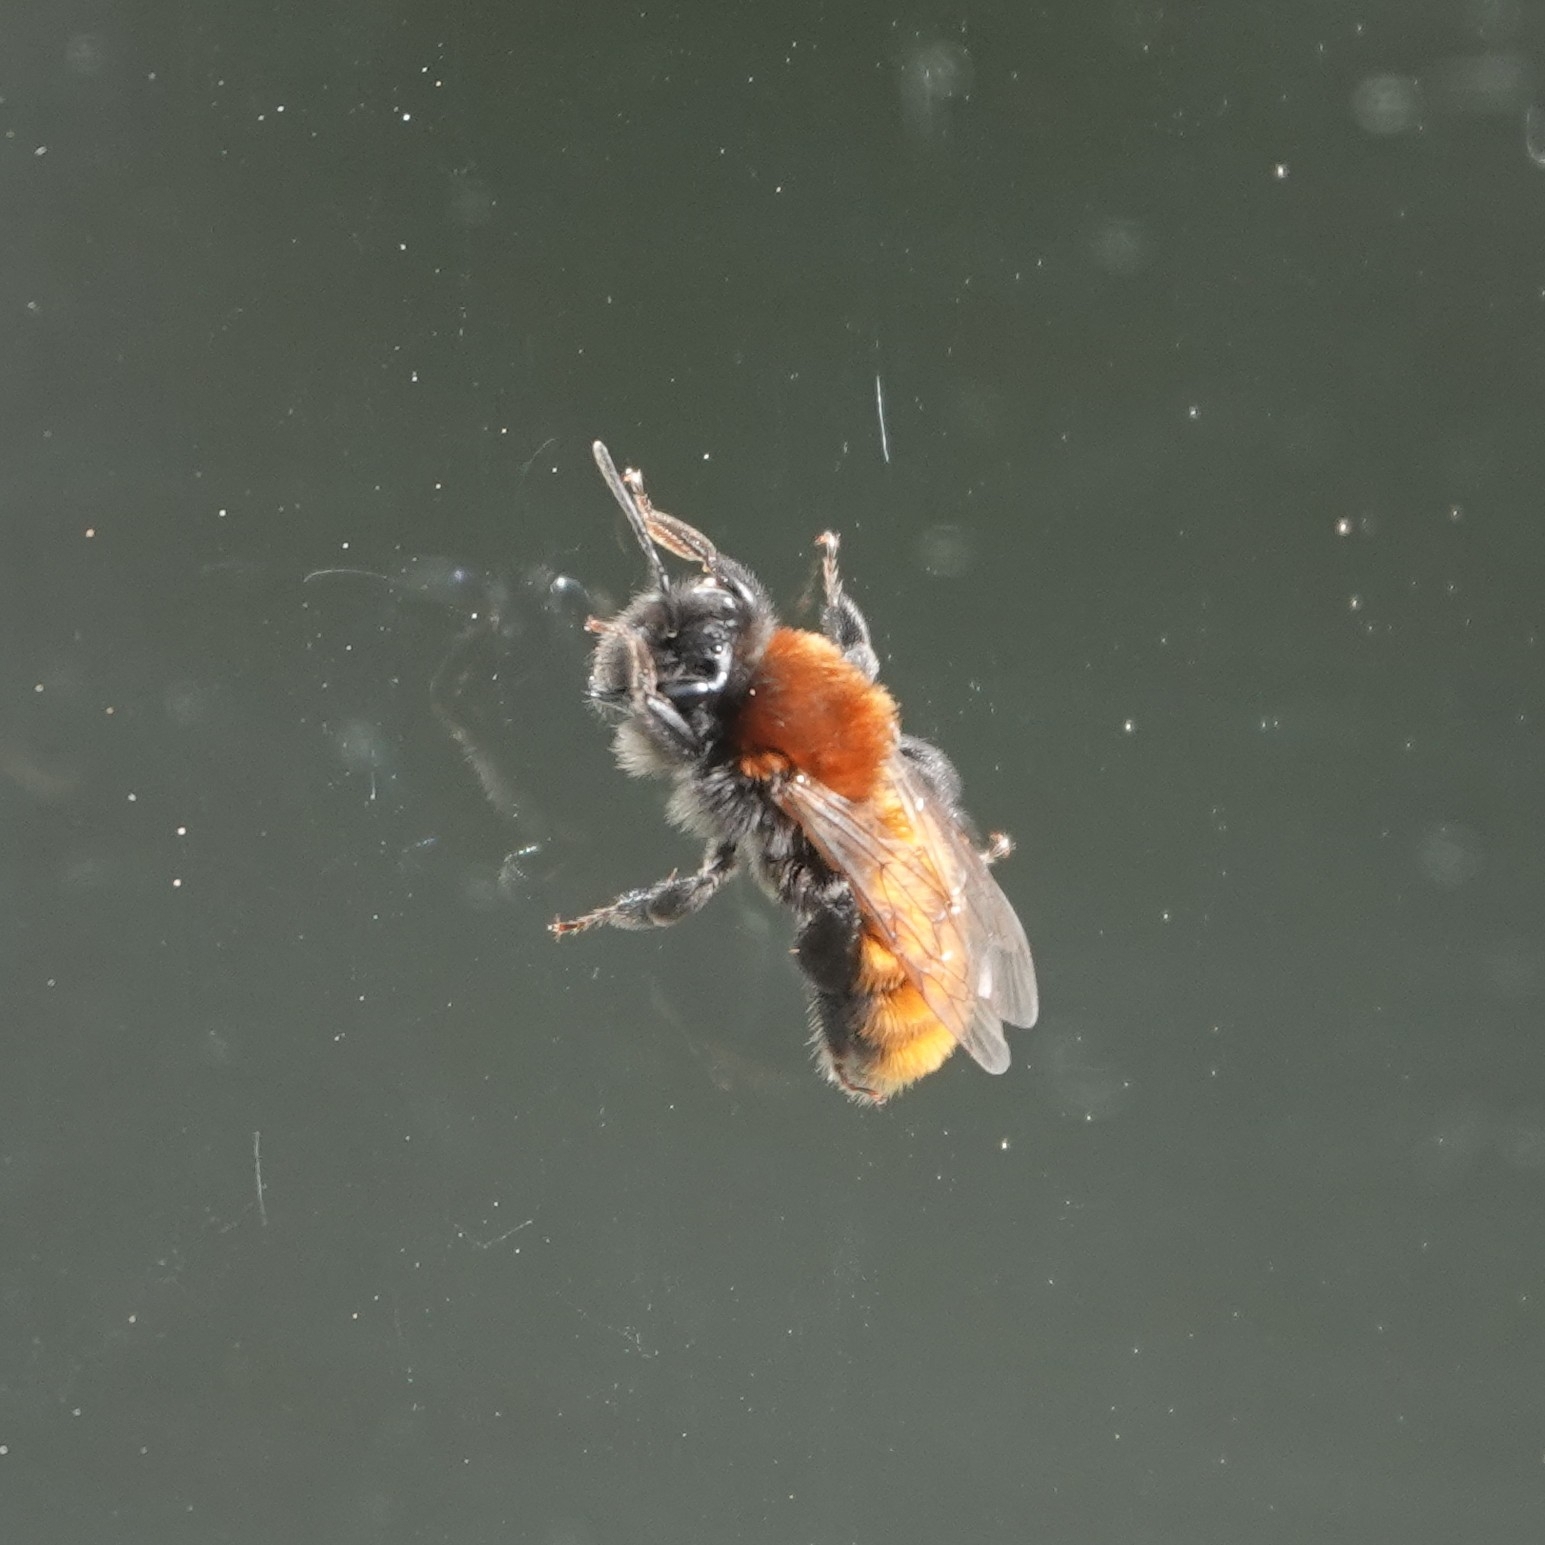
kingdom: Animalia
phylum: Arthropoda
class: Insecta
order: Hymenoptera
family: Andrenidae
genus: Andrena
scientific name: Andrena fulva
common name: Tawny mining bee
